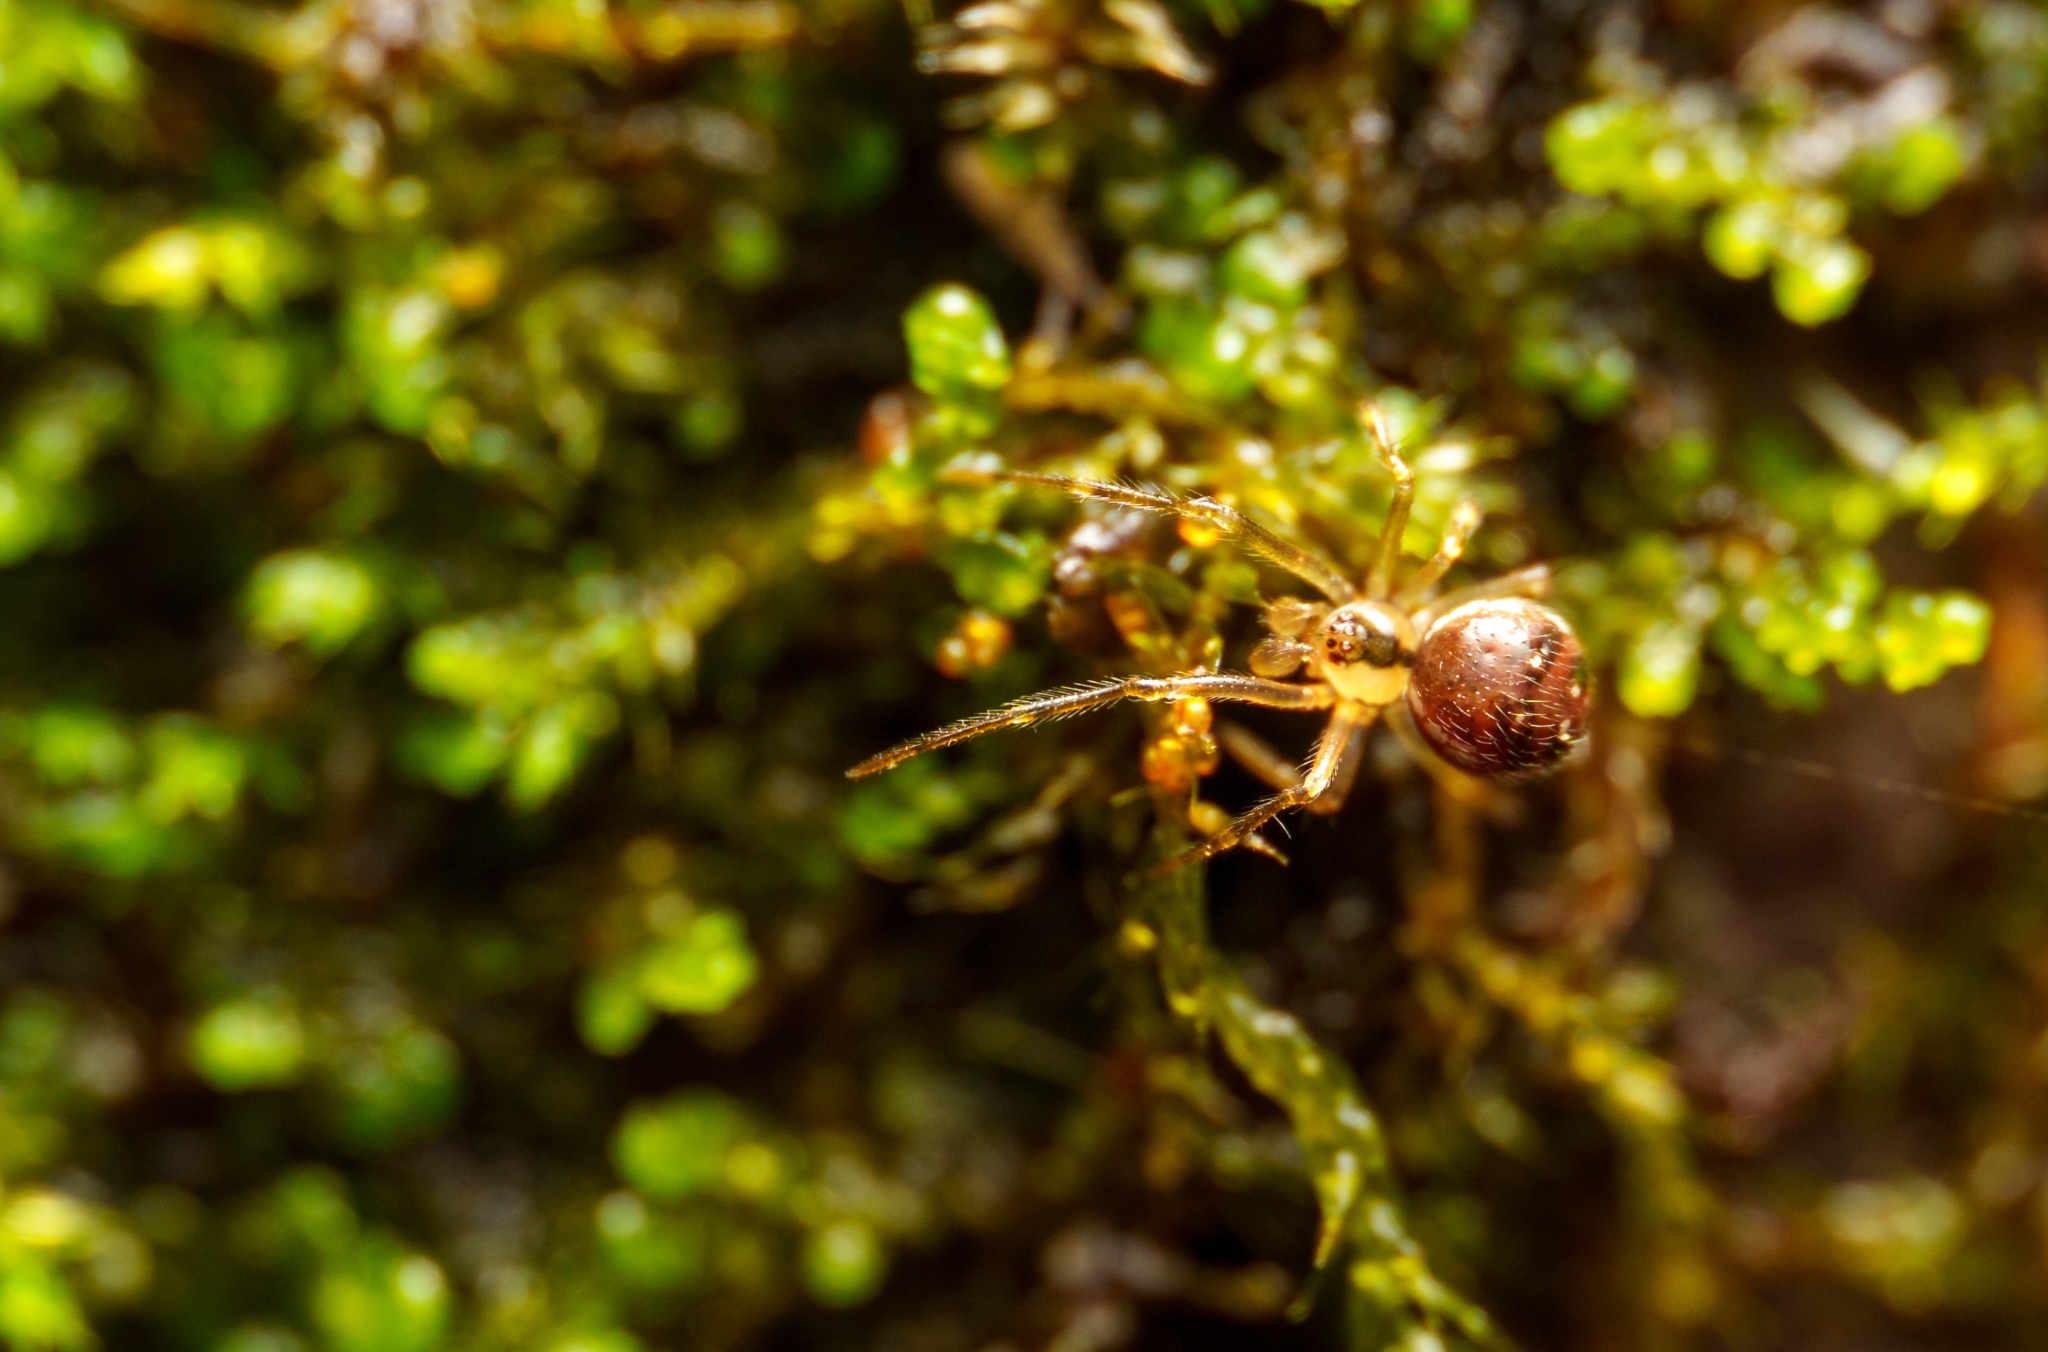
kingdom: Animalia
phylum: Arthropoda
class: Arachnida
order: Araneae
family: Theridiidae
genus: Rugathodes
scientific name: Rugathodes sexpunctatus
